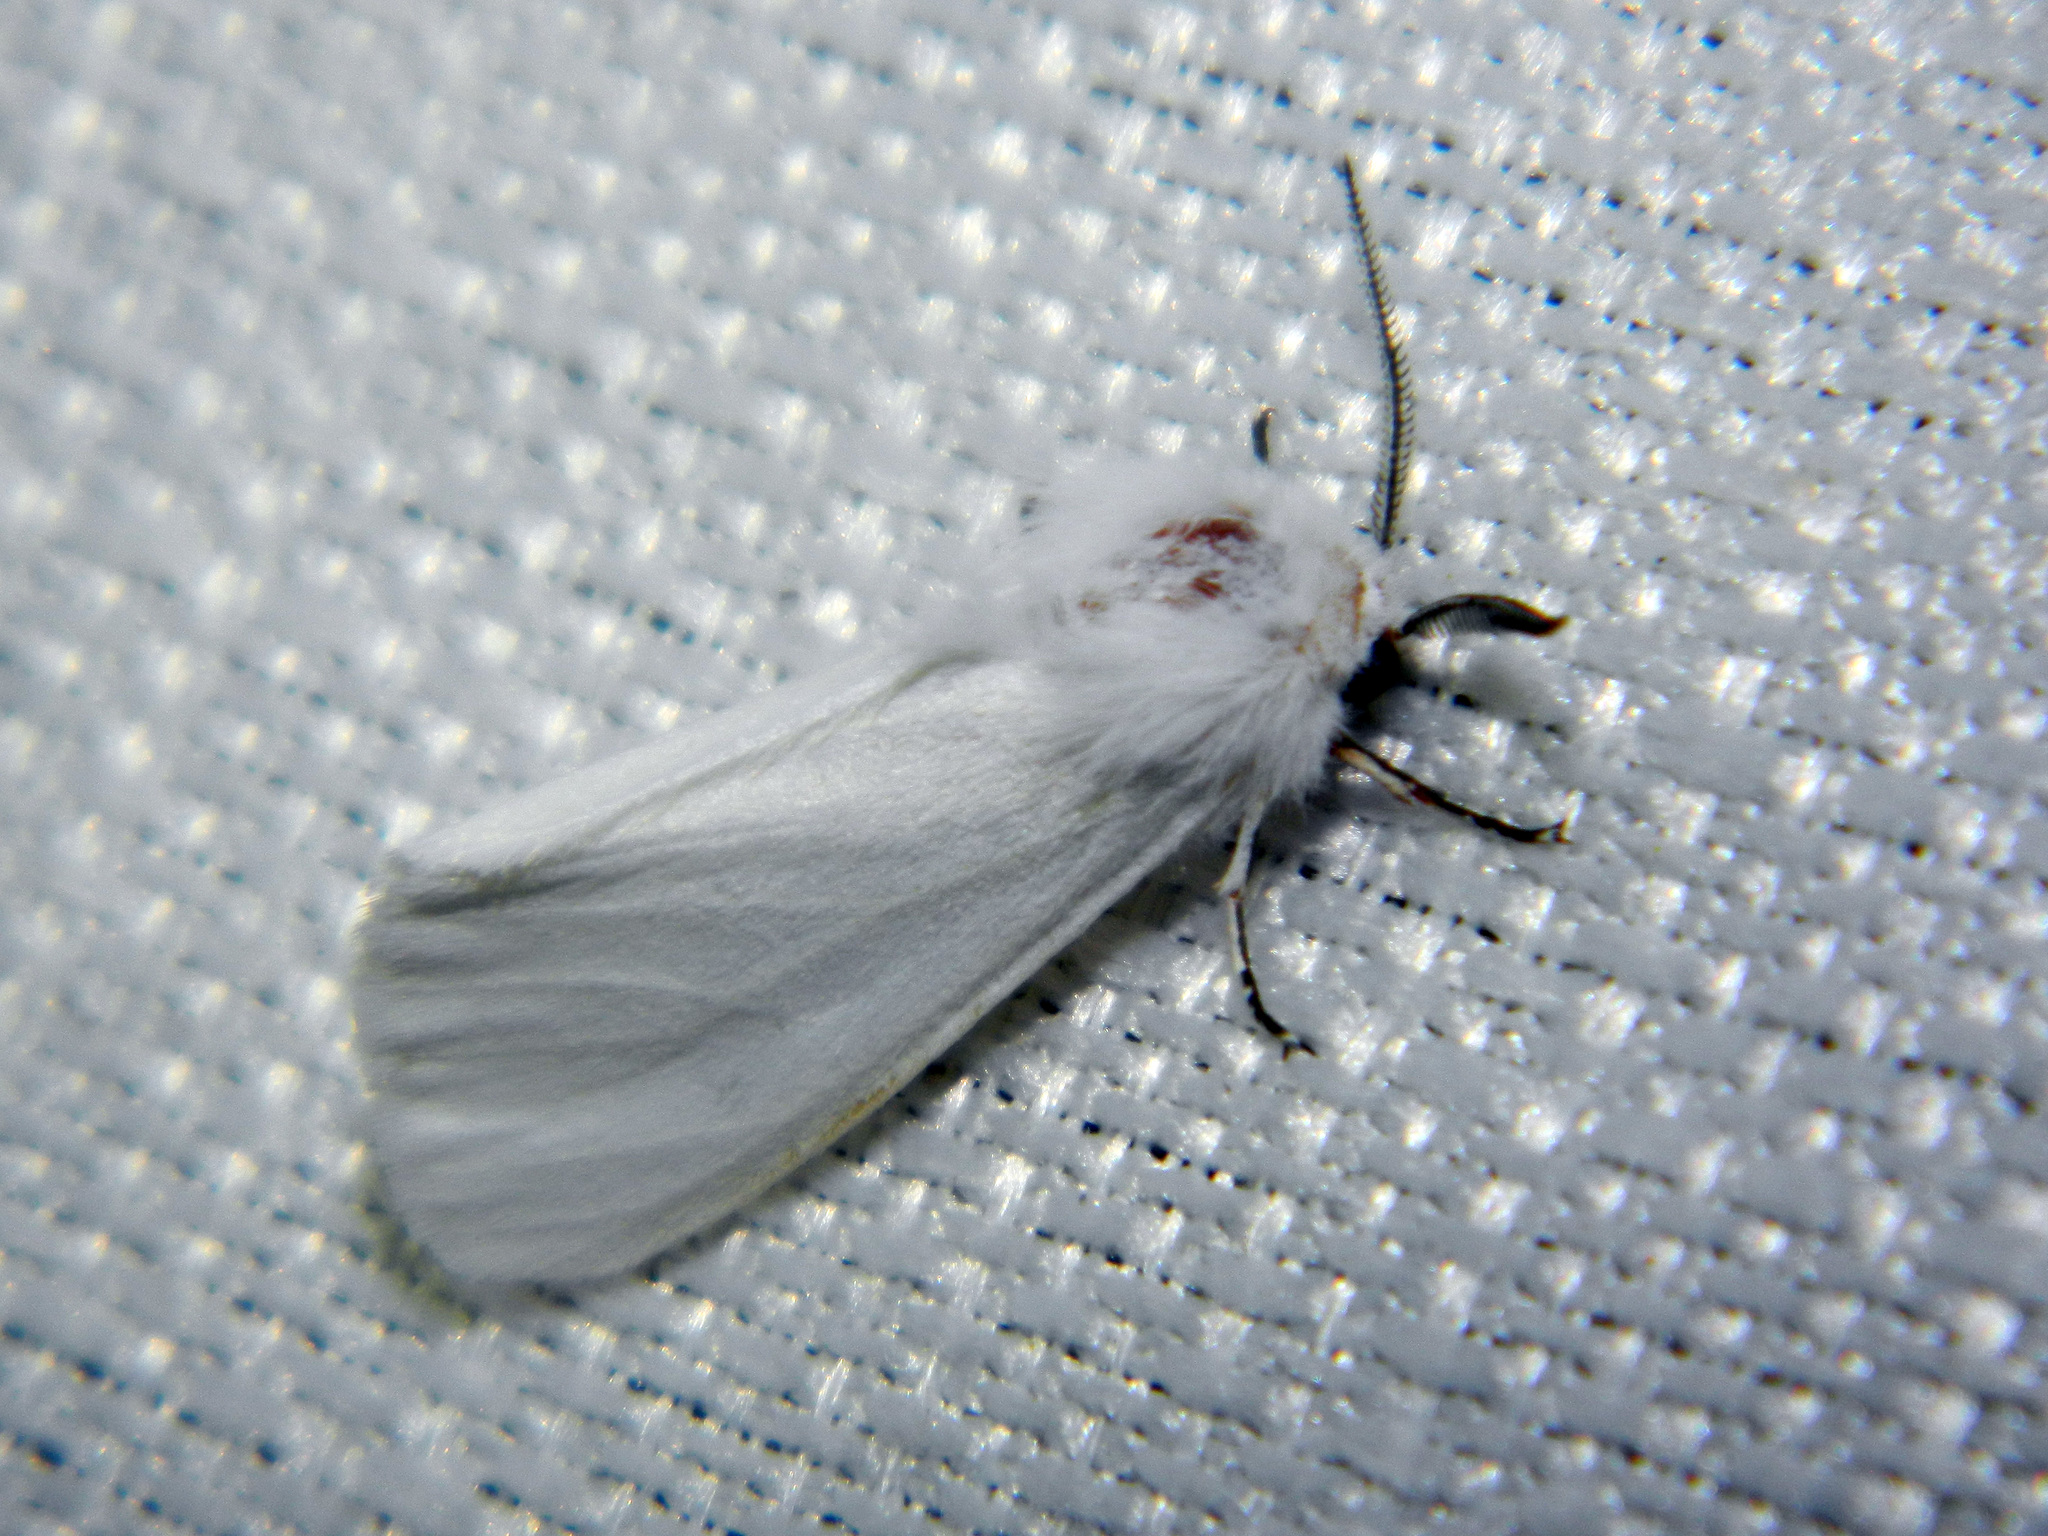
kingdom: Animalia
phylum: Arthropoda
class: Insecta
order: Lepidoptera
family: Erebidae
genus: Hyphantria
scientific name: Hyphantria cunea
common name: American white moth
